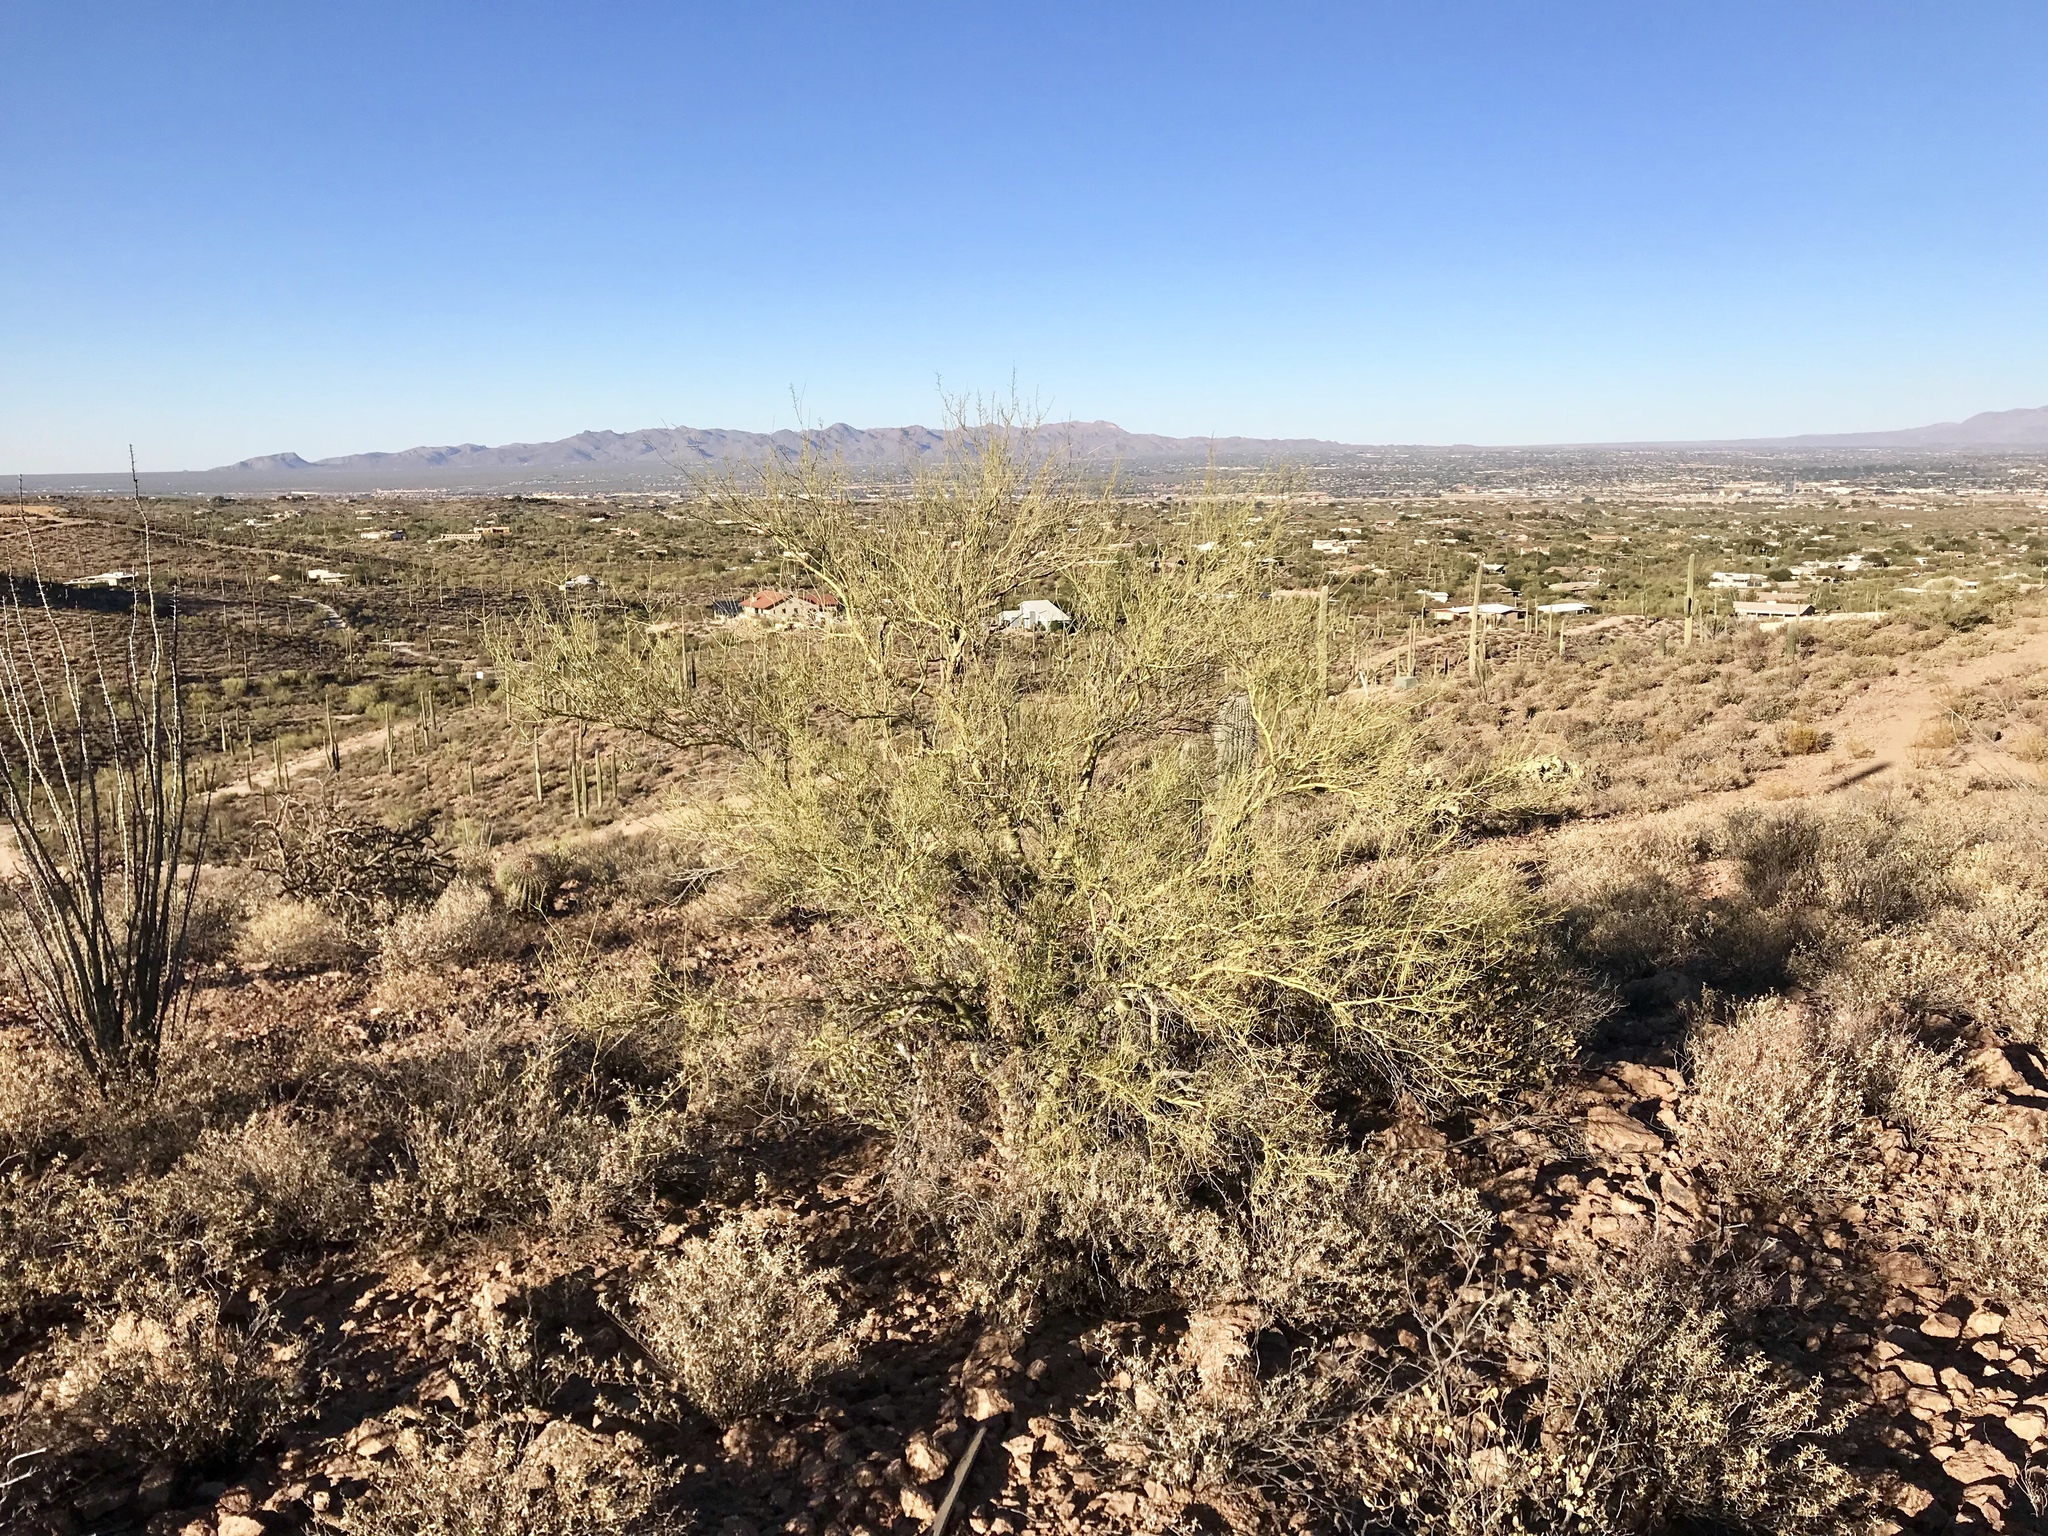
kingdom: Plantae
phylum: Tracheophyta
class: Magnoliopsida
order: Fabales
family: Fabaceae
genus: Parkinsonia
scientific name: Parkinsonia microphylla
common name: Yellow paloverde
